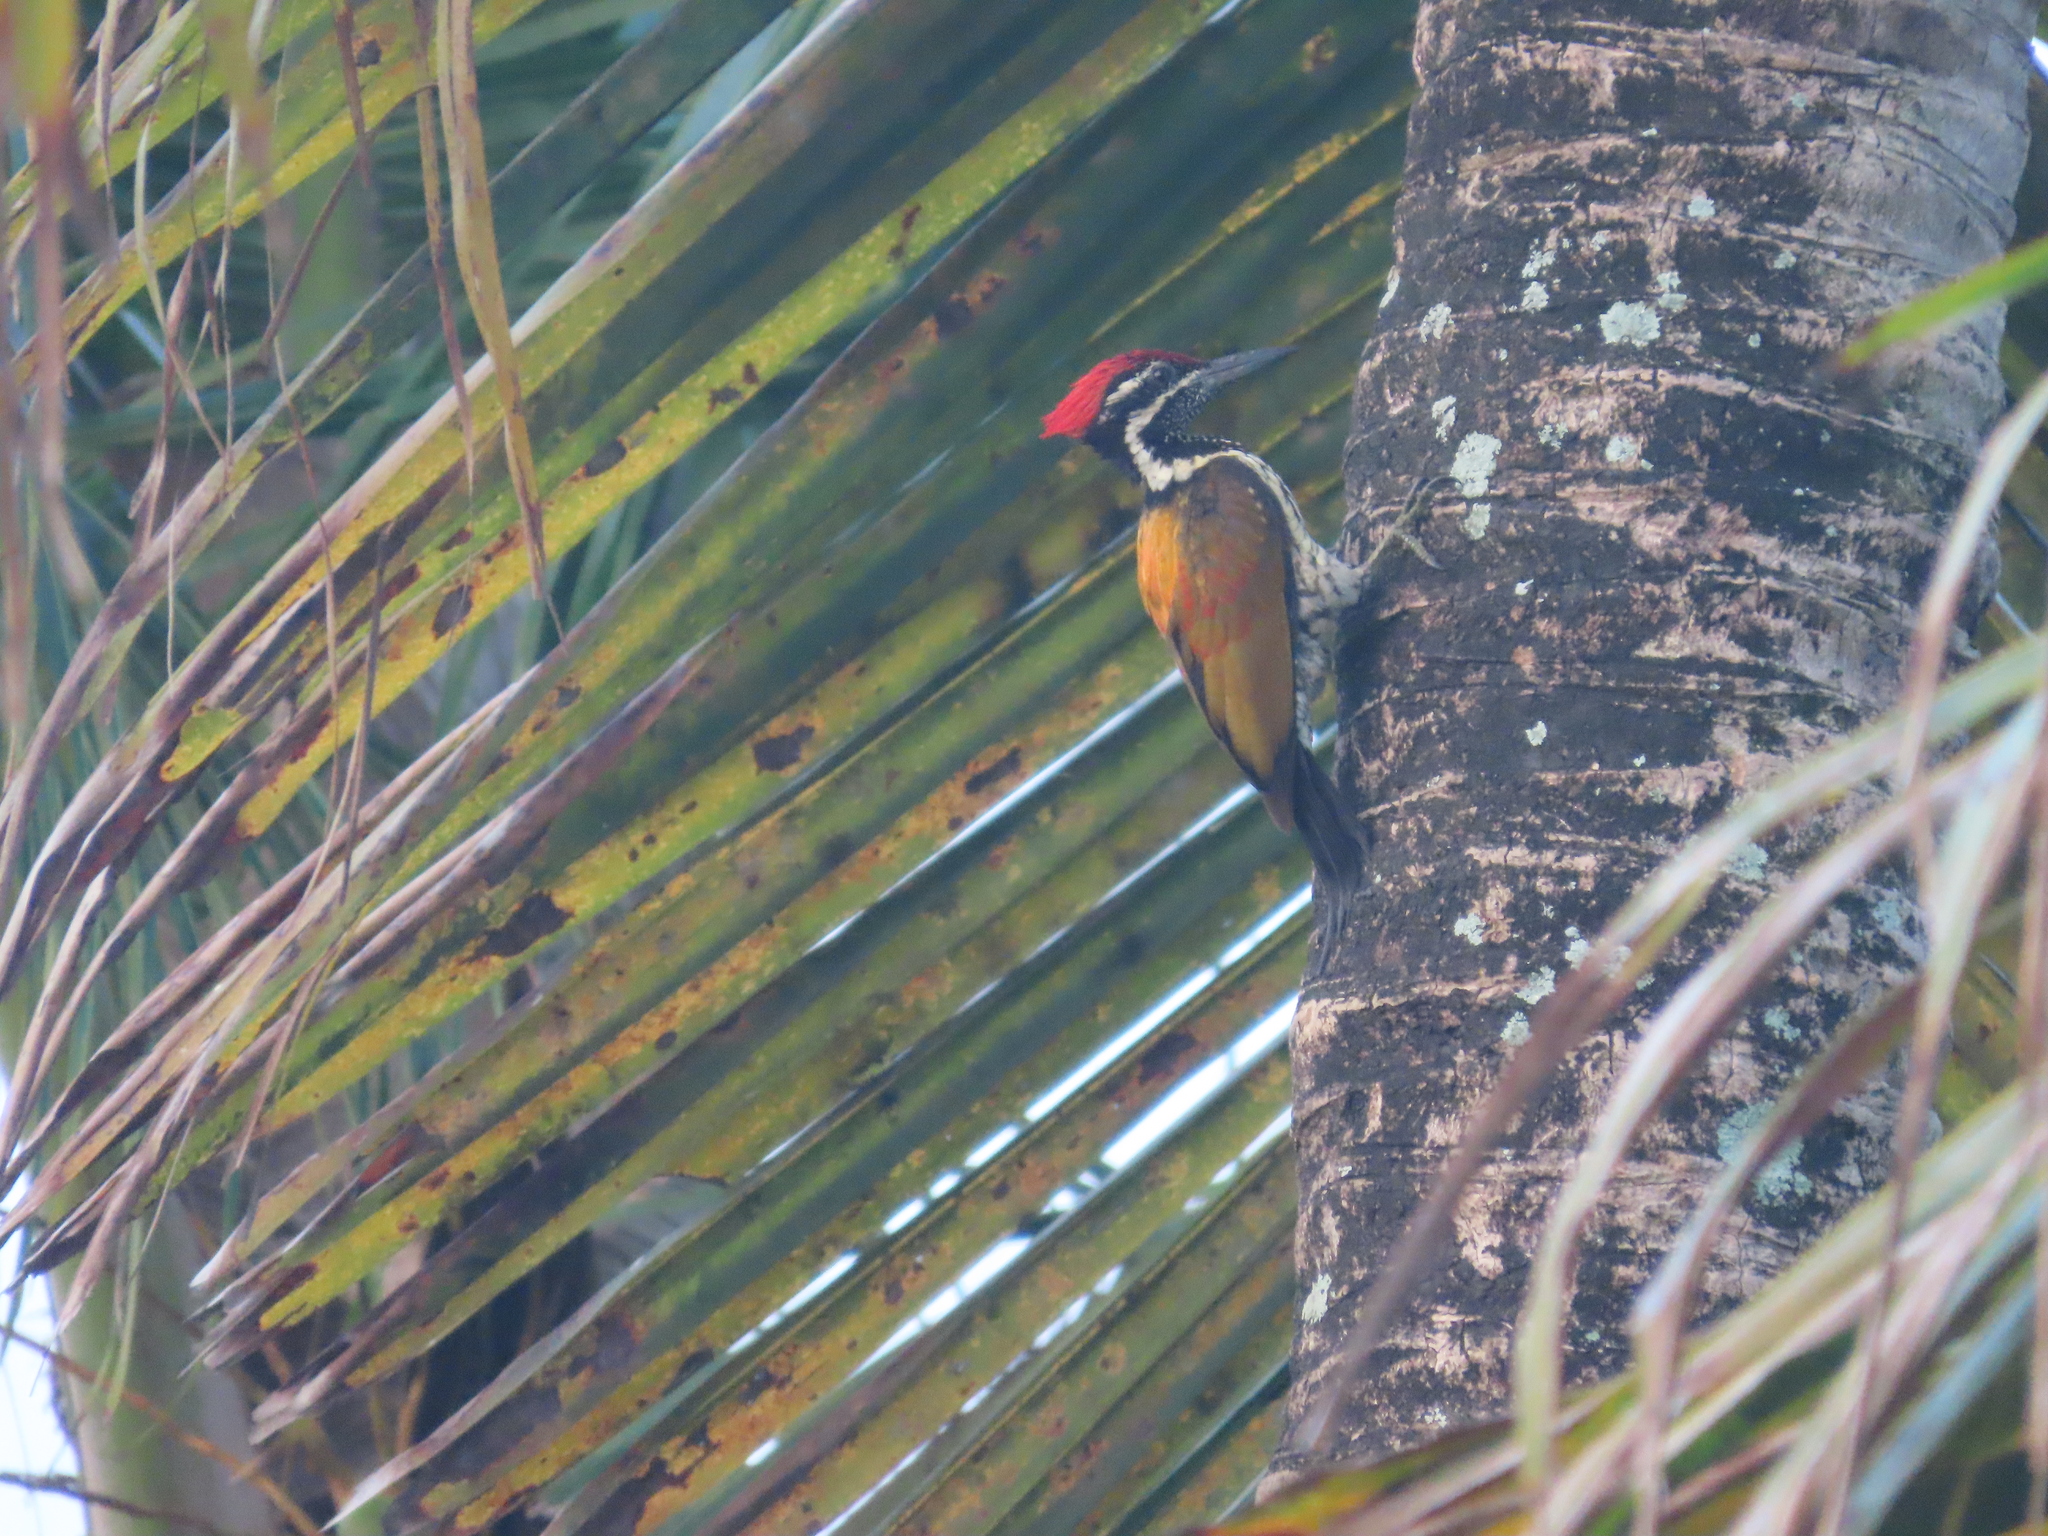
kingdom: Animalia
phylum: Chordata
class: Aves
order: Piciformes
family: Picidae
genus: Dinopium
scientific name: Dinopium benghalense
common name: Black-rumped flameback
